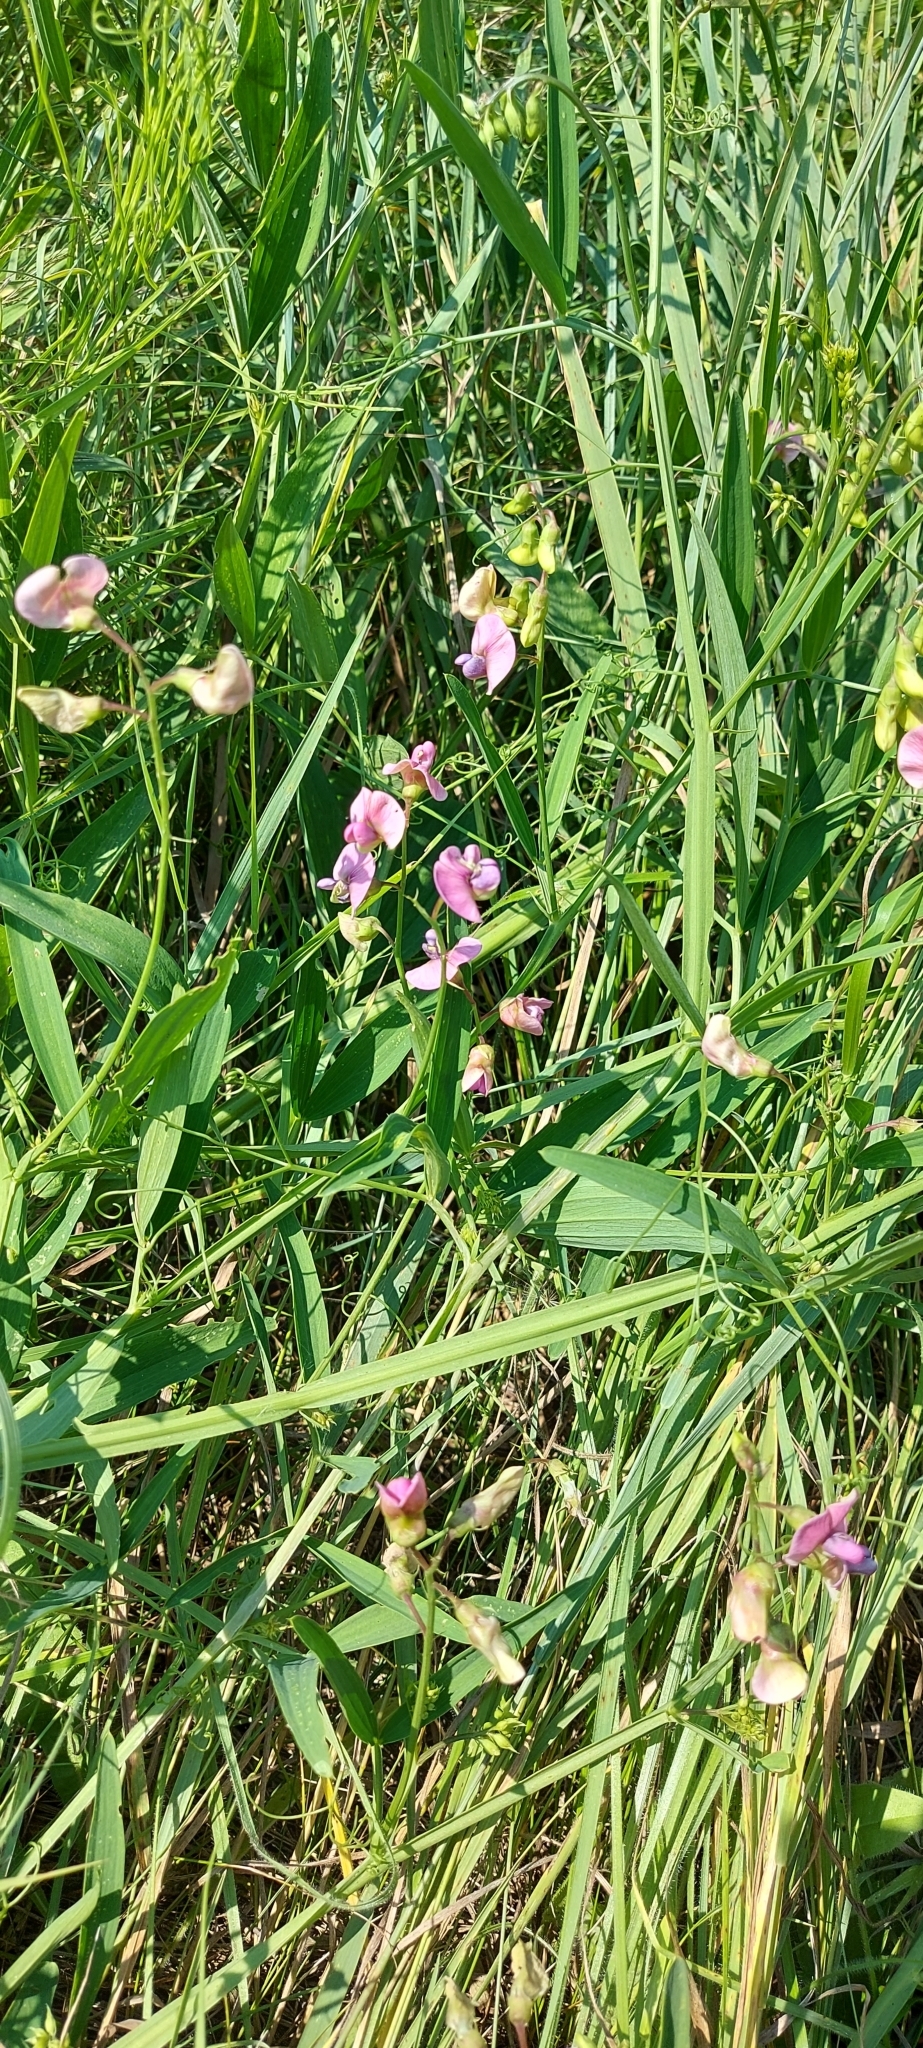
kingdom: Plantae
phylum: Tracheophyta
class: Magnoliopsida
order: Fabales
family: Fabaceae
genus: Lathyrus
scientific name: Lathyrus sylvestris
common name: Flat pea
